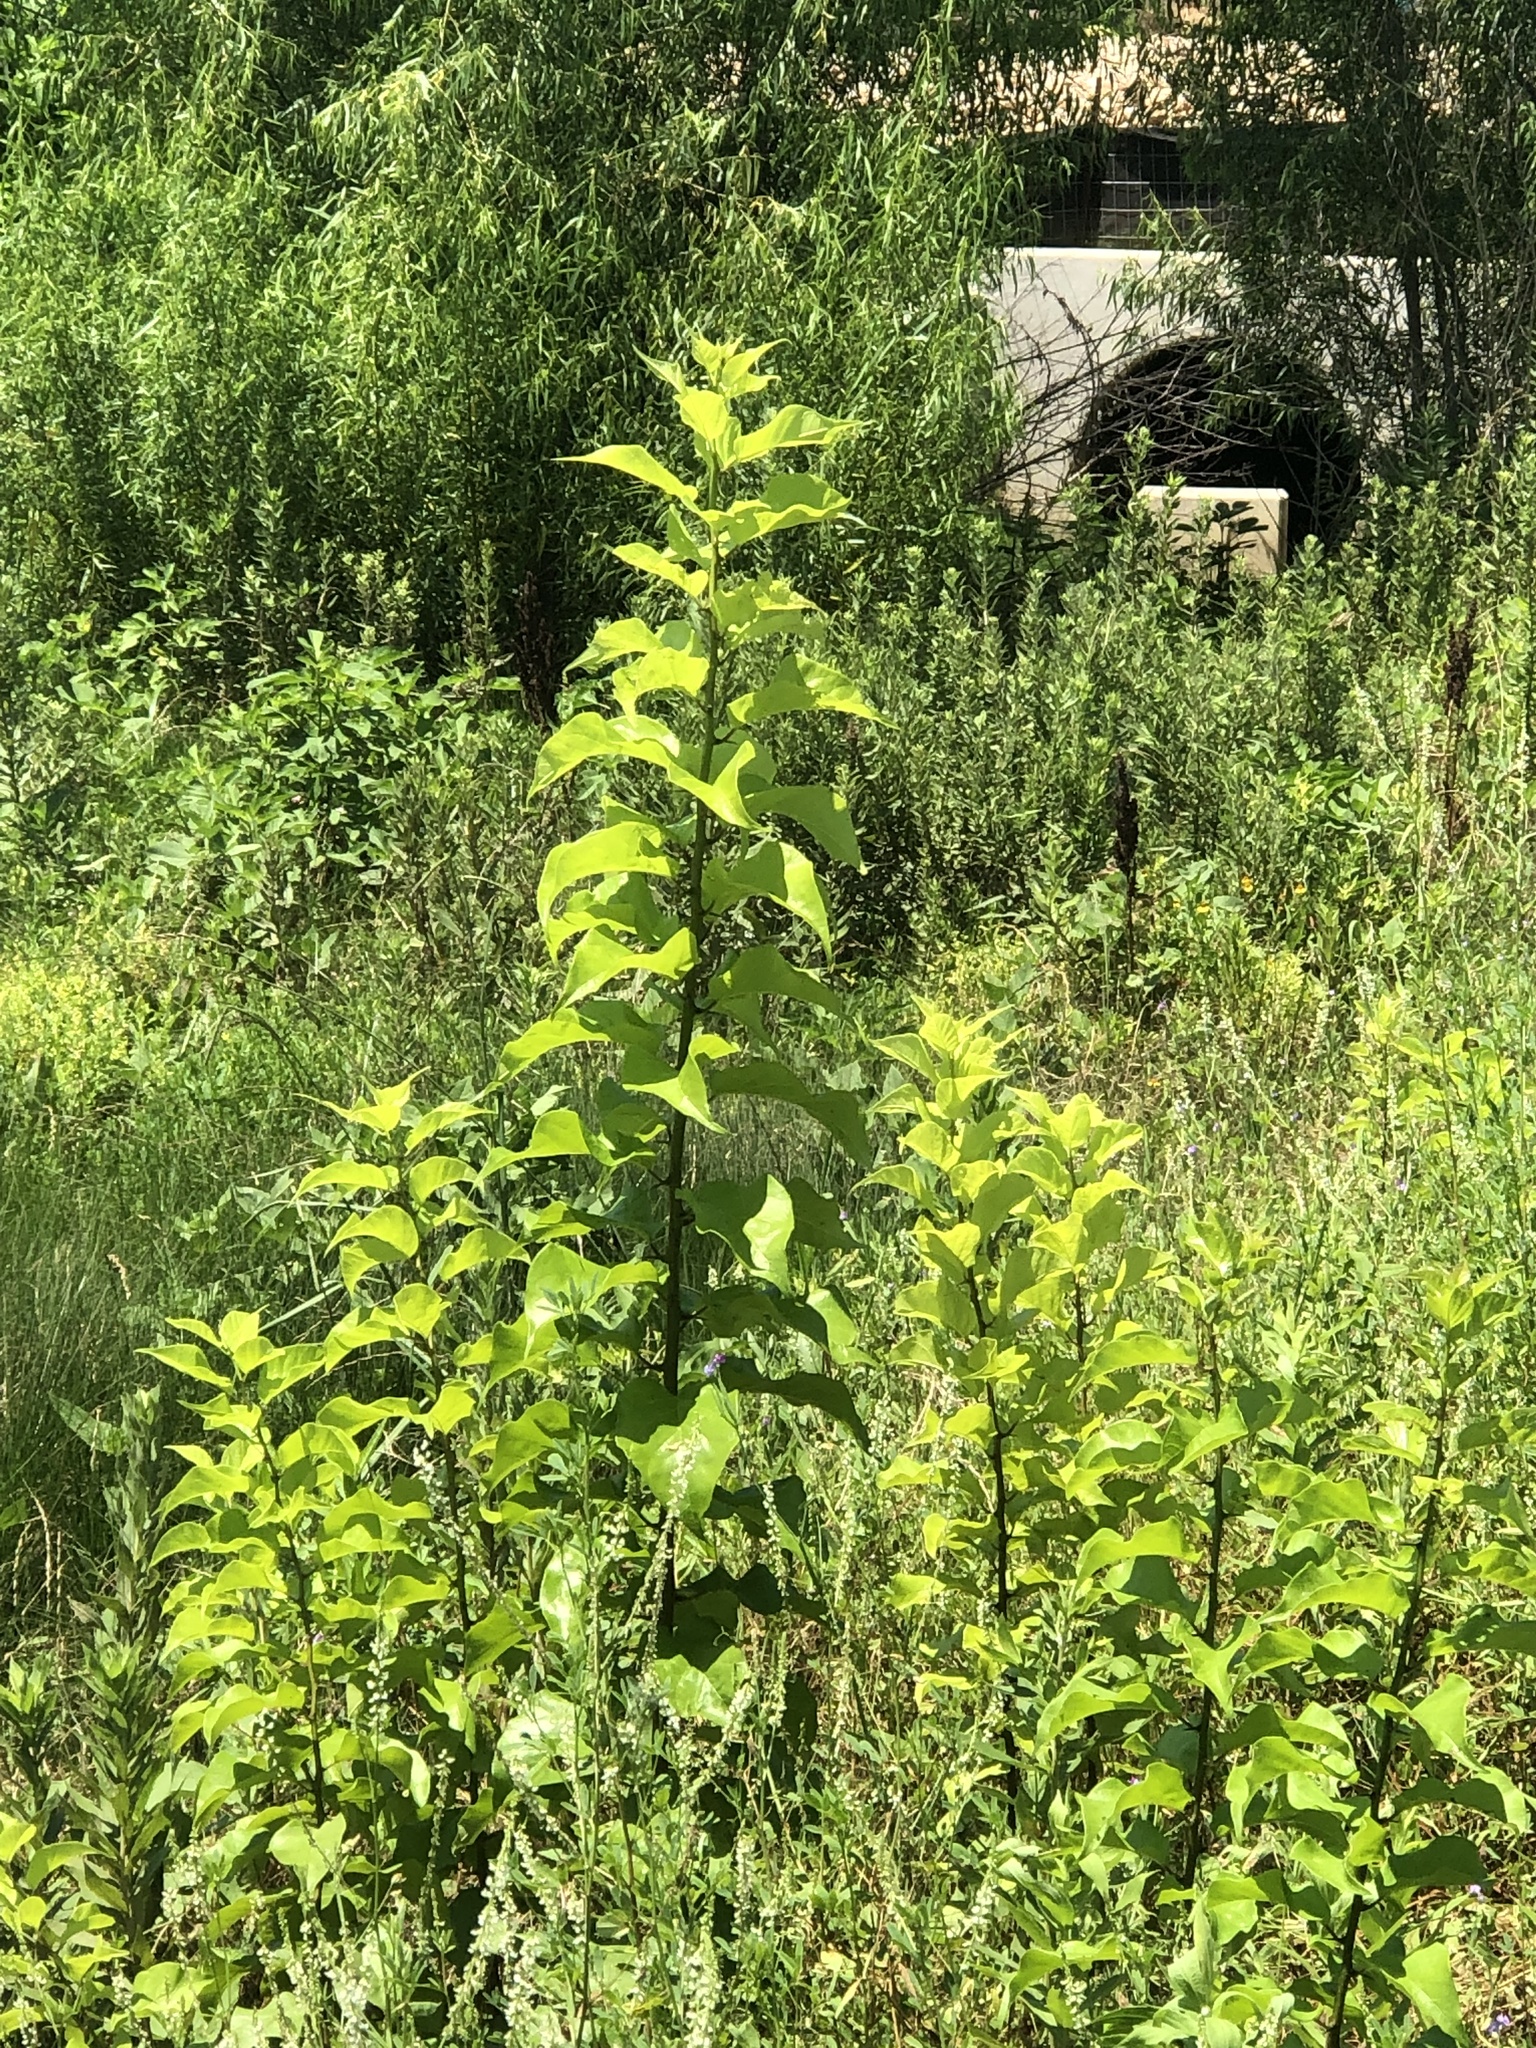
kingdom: Plantae
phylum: Tracheophyta
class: Magnoliopsida
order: Rosales
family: Moraceae
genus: Maclura
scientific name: Maclura pomifera
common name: Osage-orange
